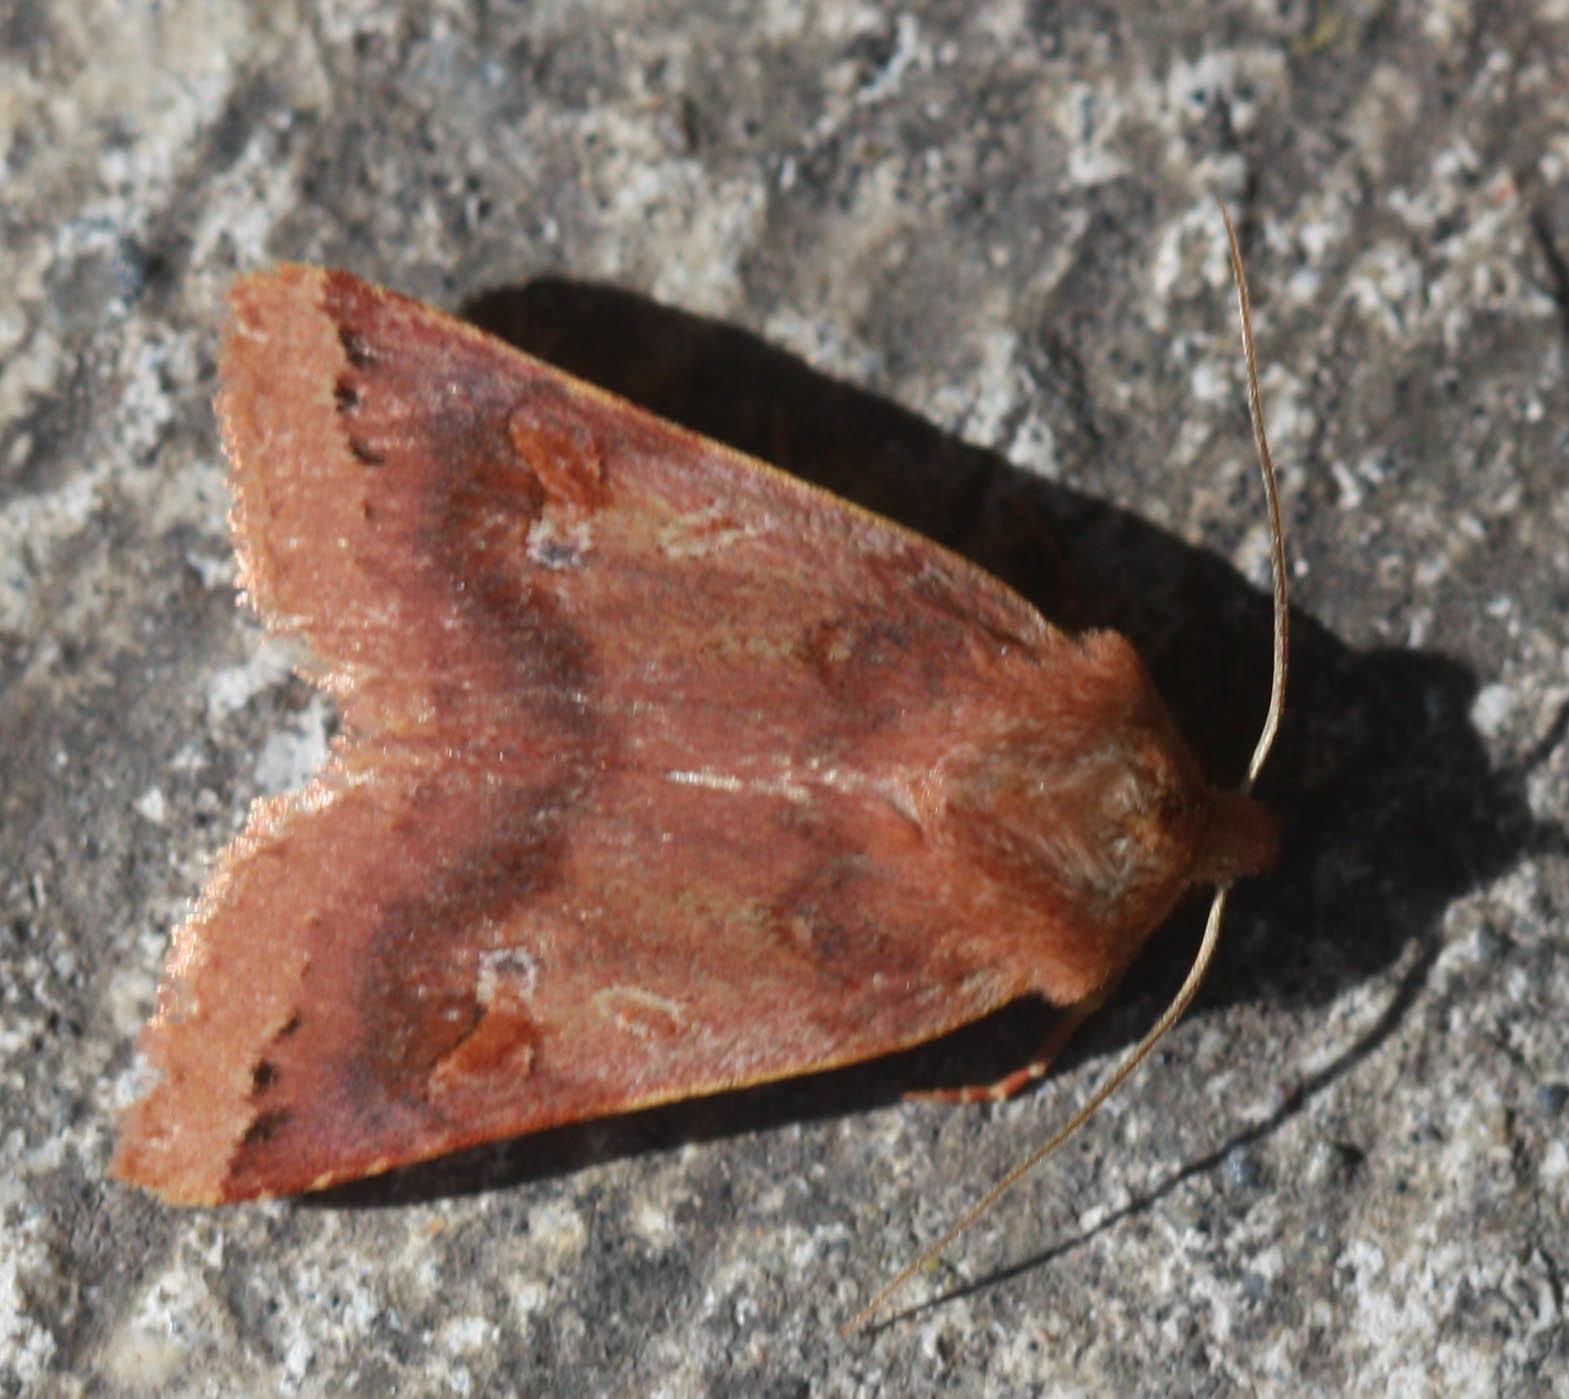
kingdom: Animalia
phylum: Arthropoda
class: Insecta
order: Lepidoptera
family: Noctuidae
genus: Agrochola
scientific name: Agrochola pulchella
